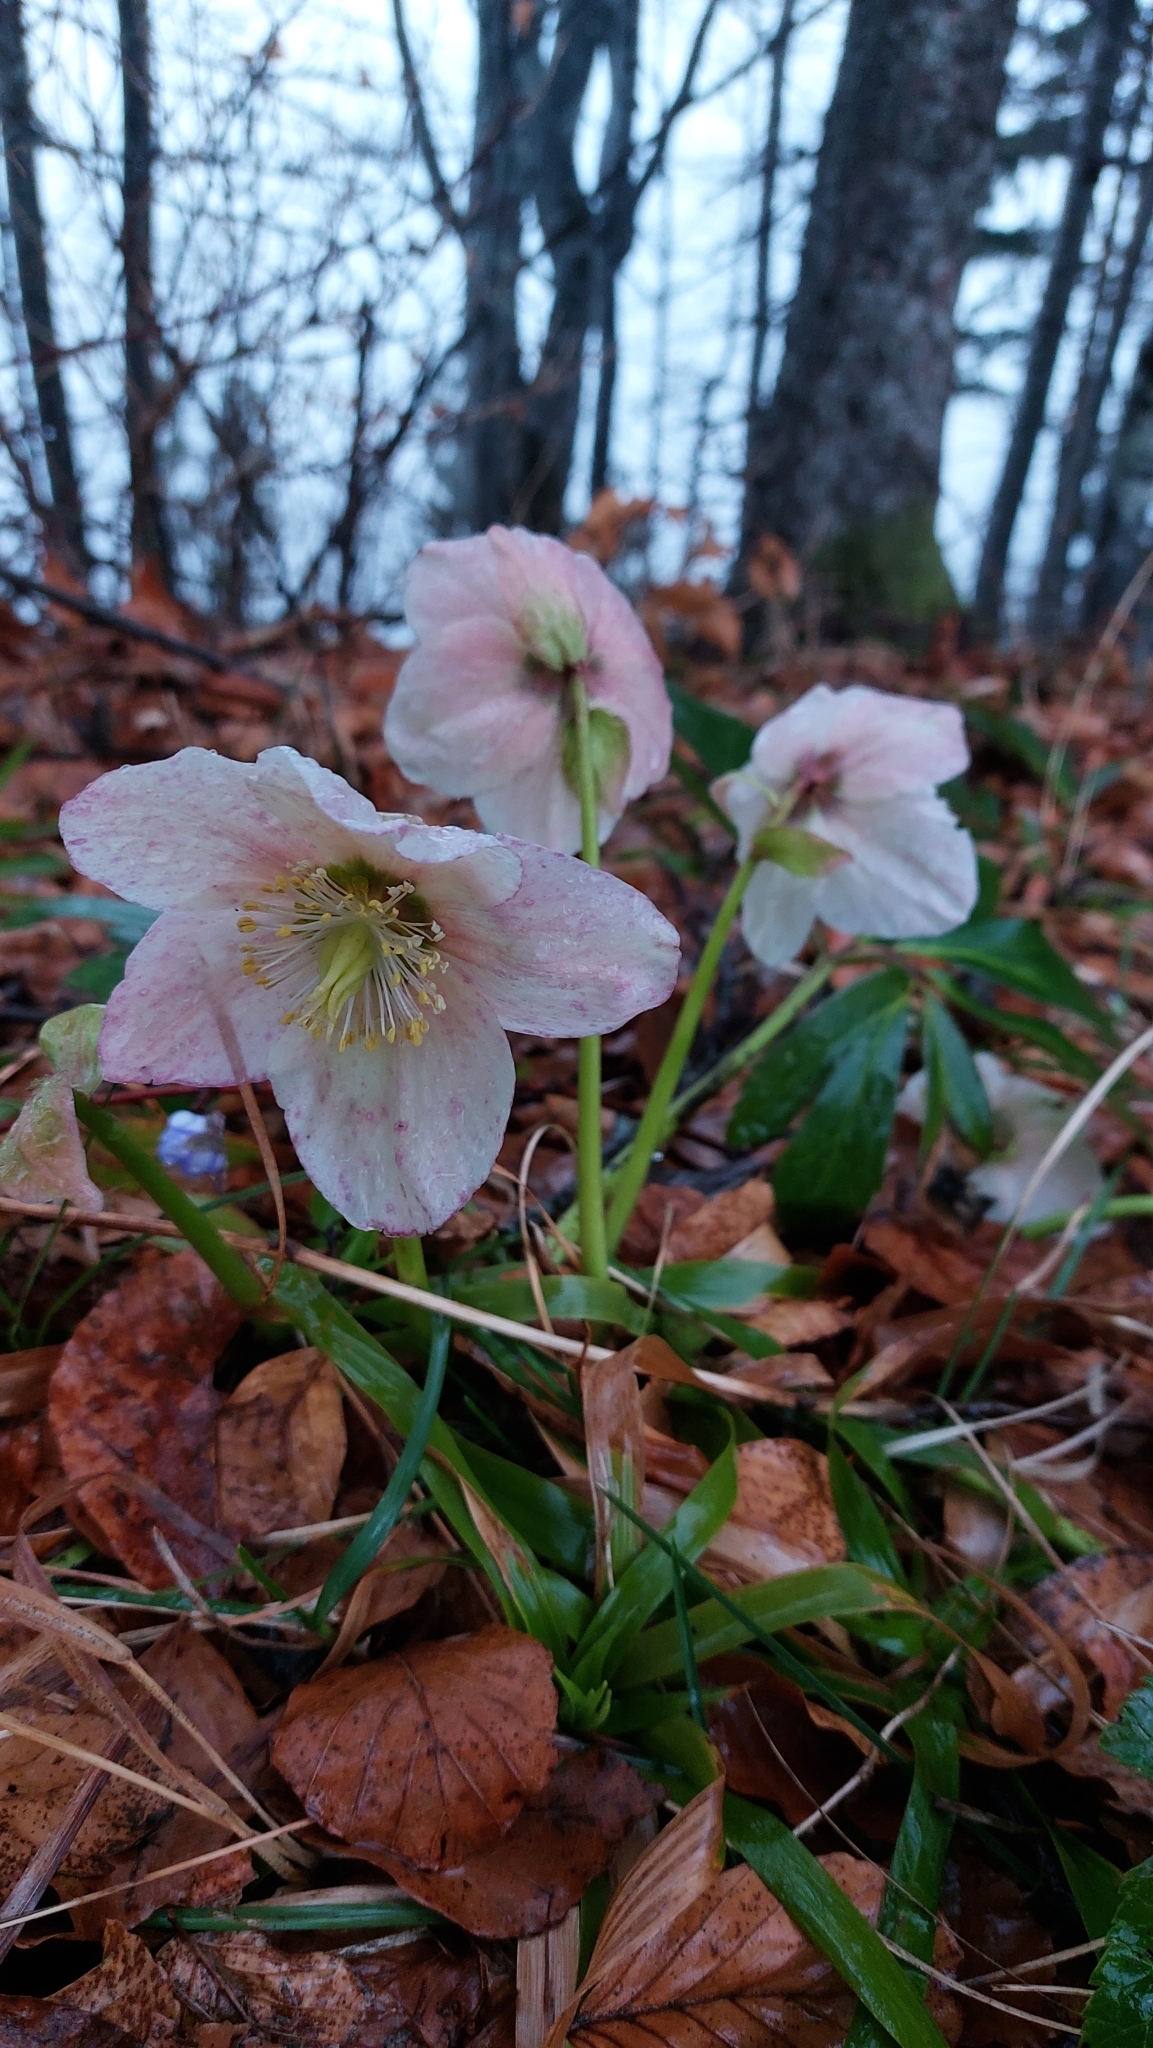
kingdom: Plantae
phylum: Tracheophyta
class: Magnoliopsida
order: Ranunculales
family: Ranunculaceae
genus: Helleborus
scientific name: Helleborus niger
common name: Black hellebore
